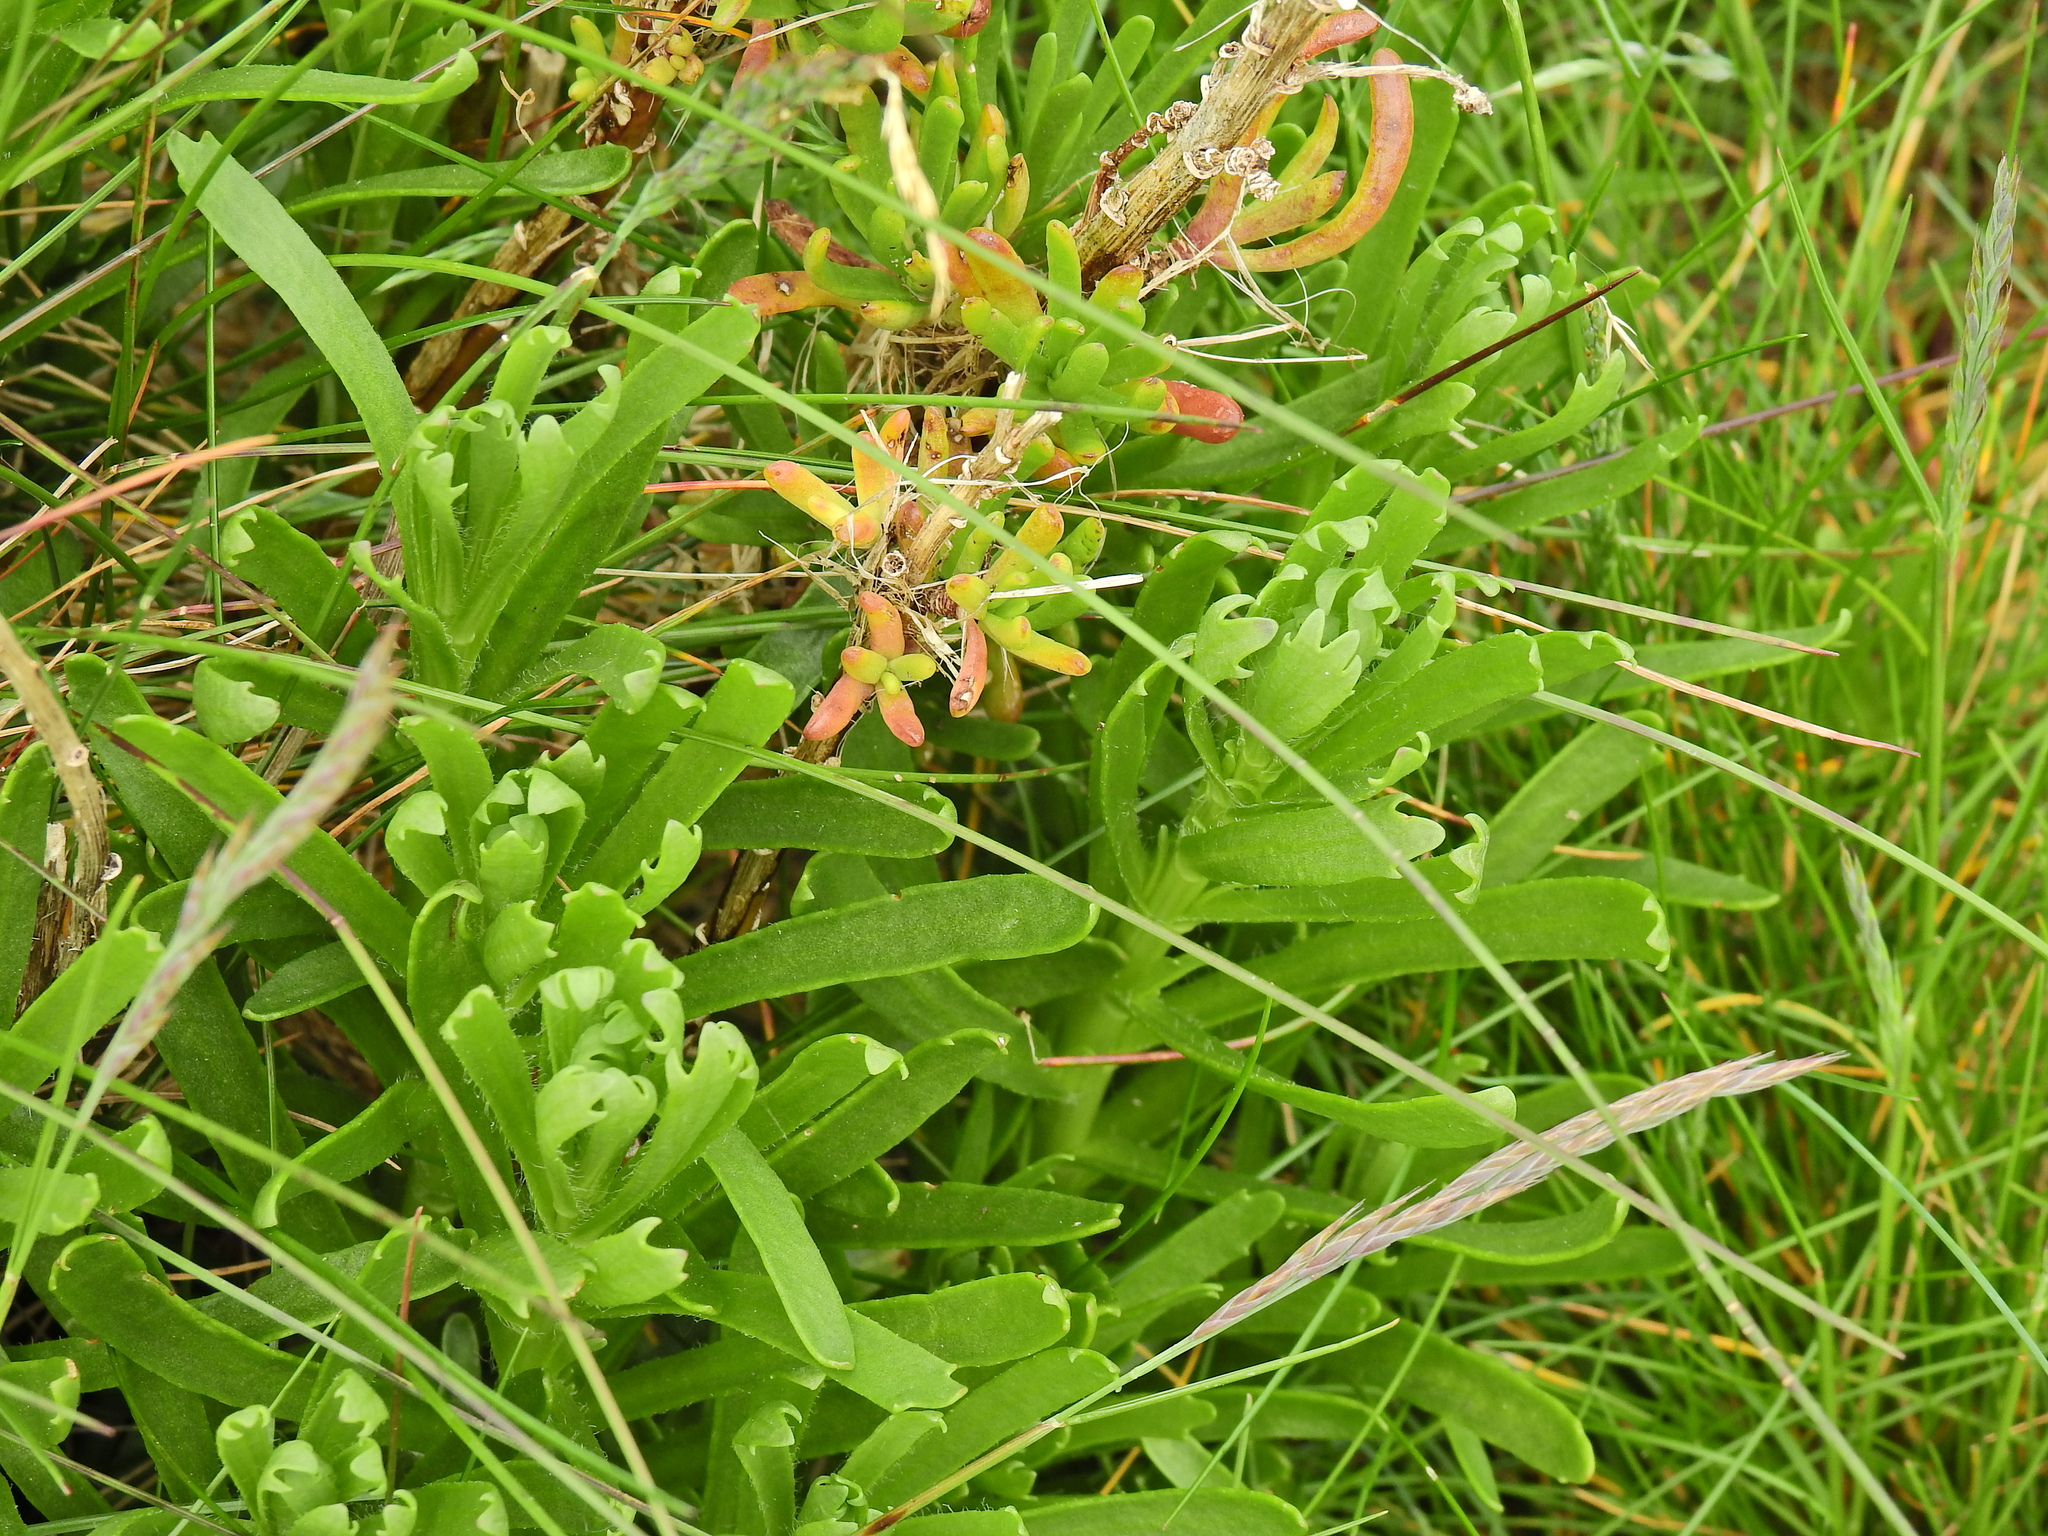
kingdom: Plantae
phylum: Tracheophyta
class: Magnoliopsida
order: Asterales
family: Asteraceae
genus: Limbarda
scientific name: Limbarda crithmoides
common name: Golden samphire
